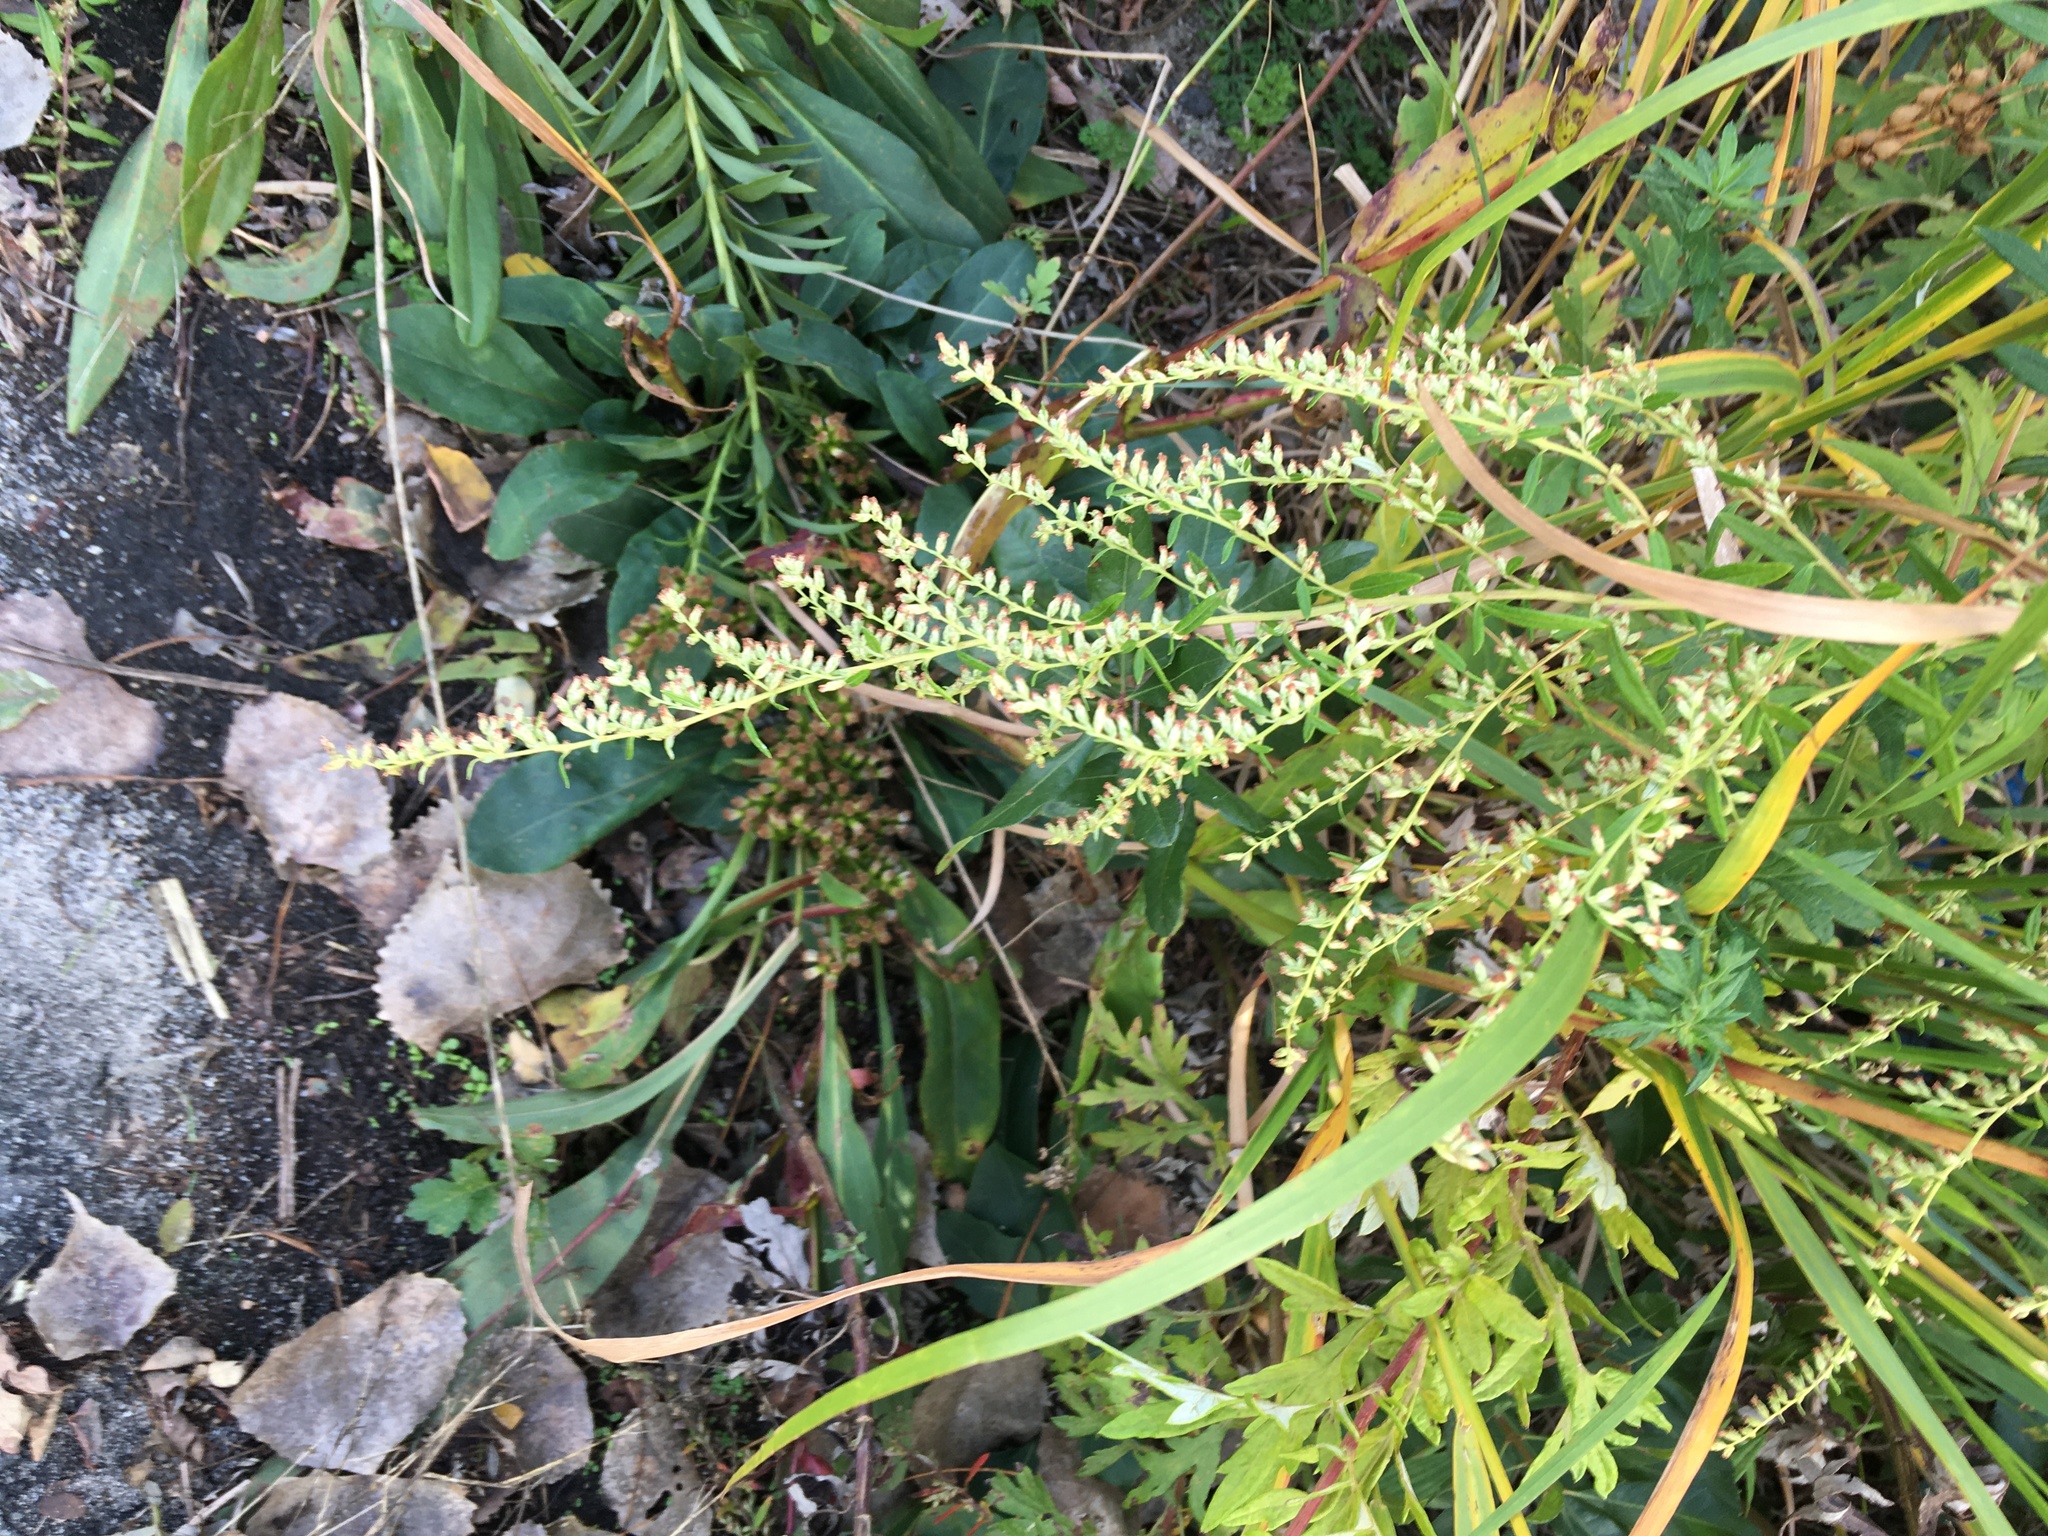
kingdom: Plantae
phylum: Tracheophyta
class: Magnoliopsida
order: Asterales
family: Asteraceae
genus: Artemisia
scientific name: Artemisia vulgaris
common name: Mugwort
